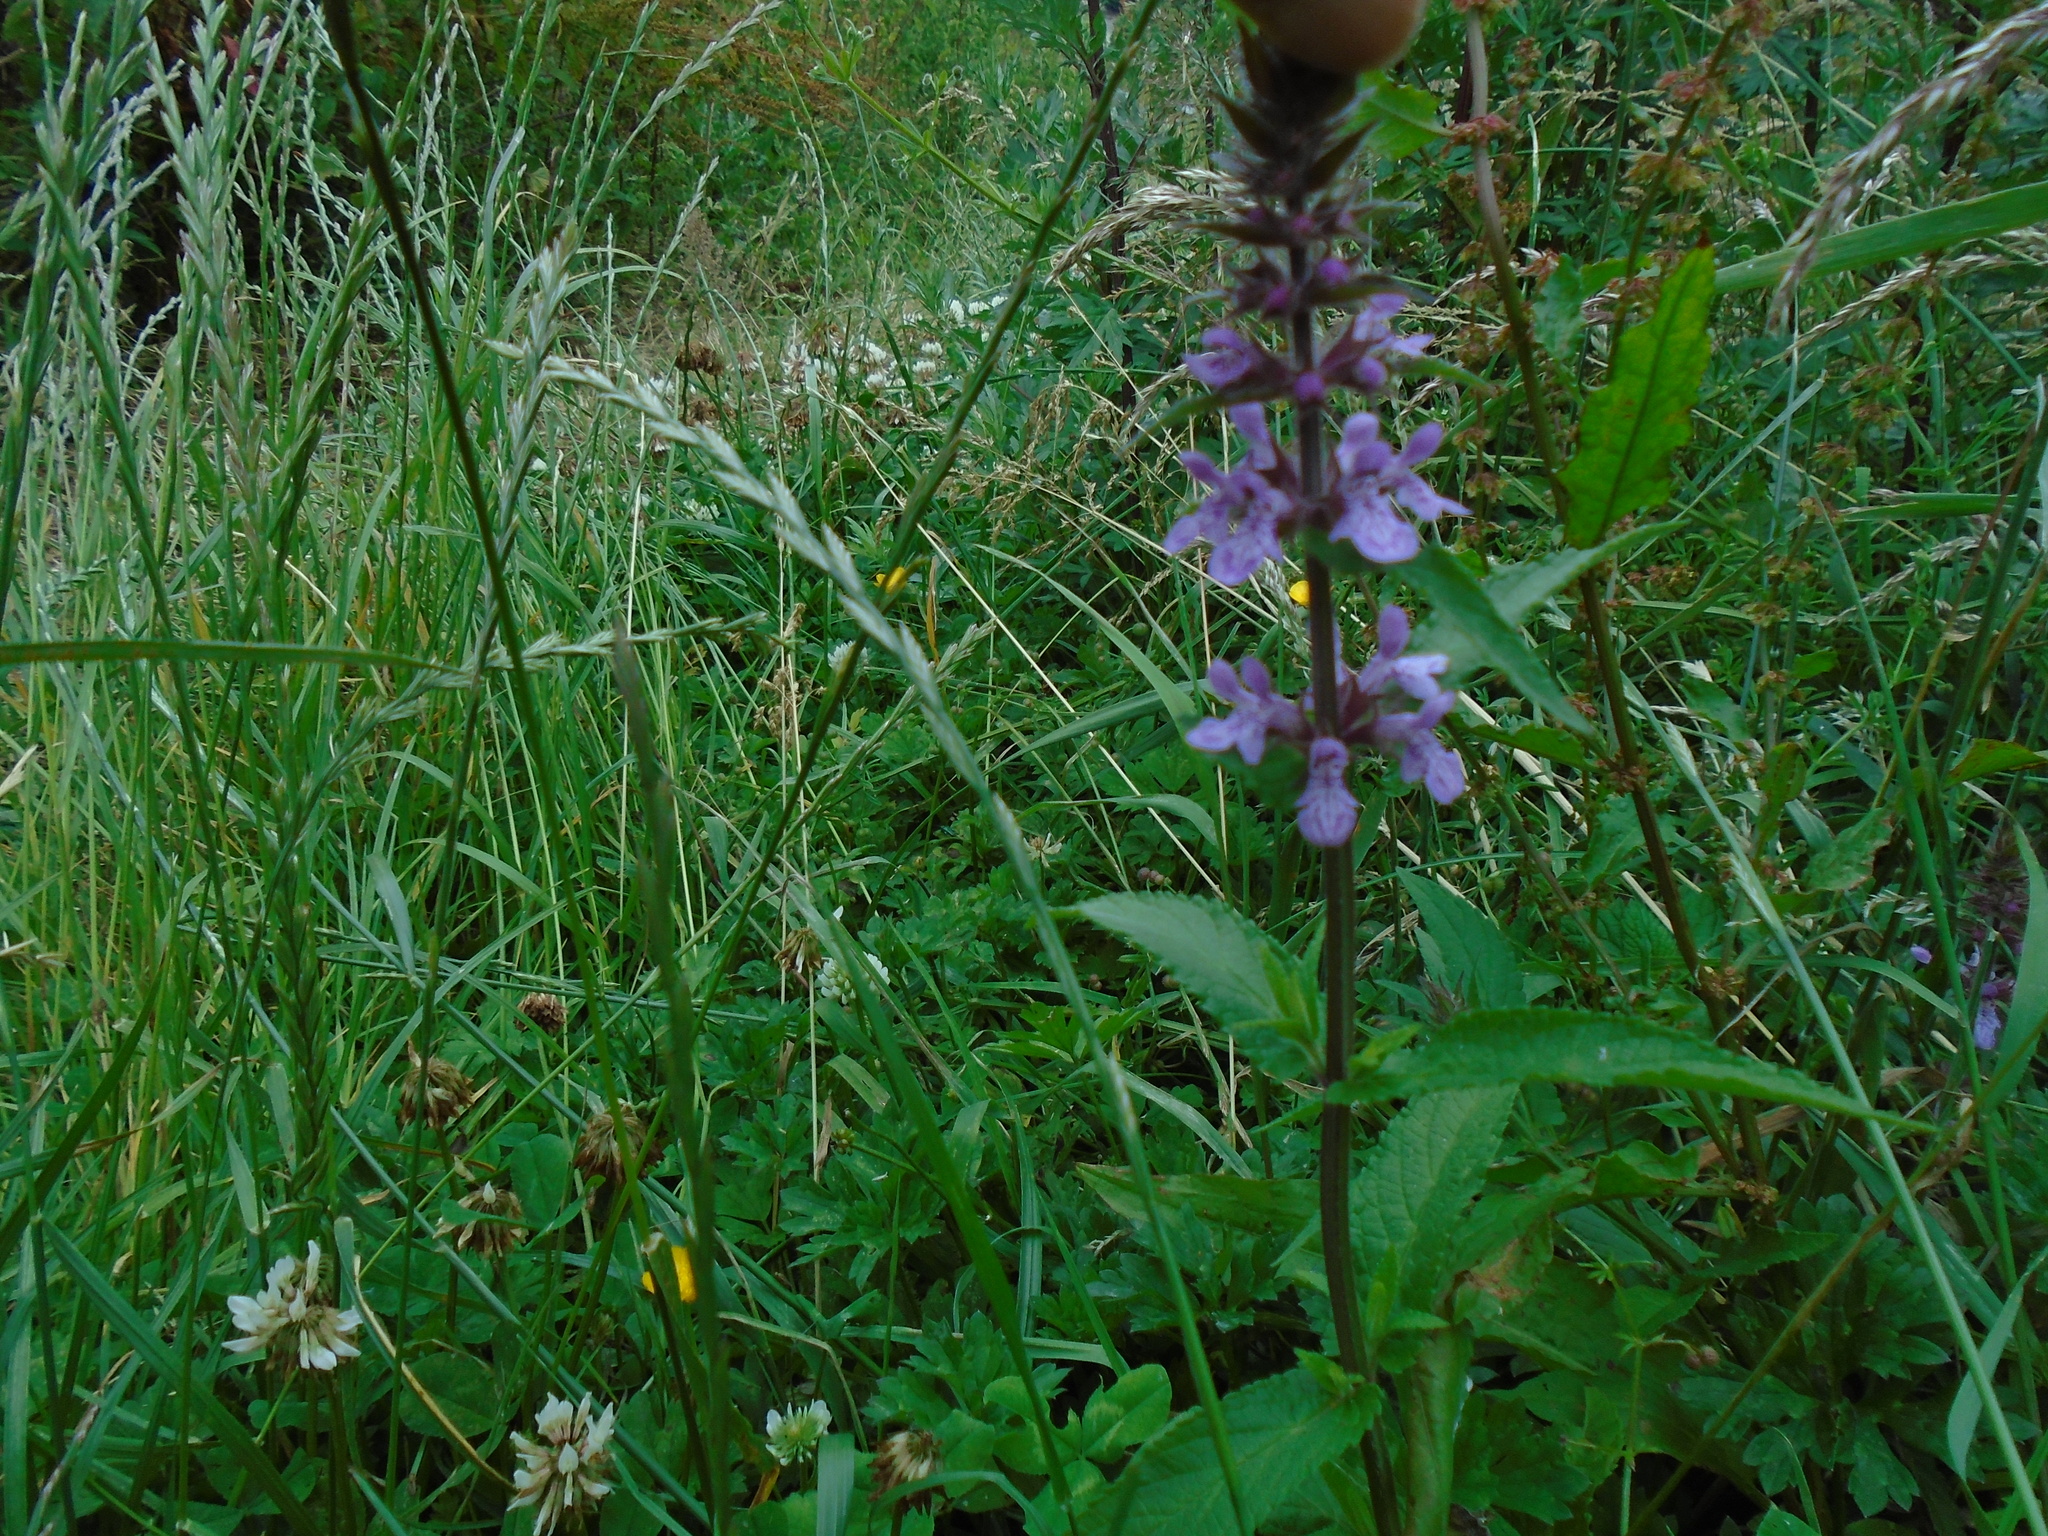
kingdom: Plantae
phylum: Tracheophyta
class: Magnoliopsida
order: Lamiales
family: Lamiaceae
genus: Stachys
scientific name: Stachys palustris
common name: Marsh woundwort
